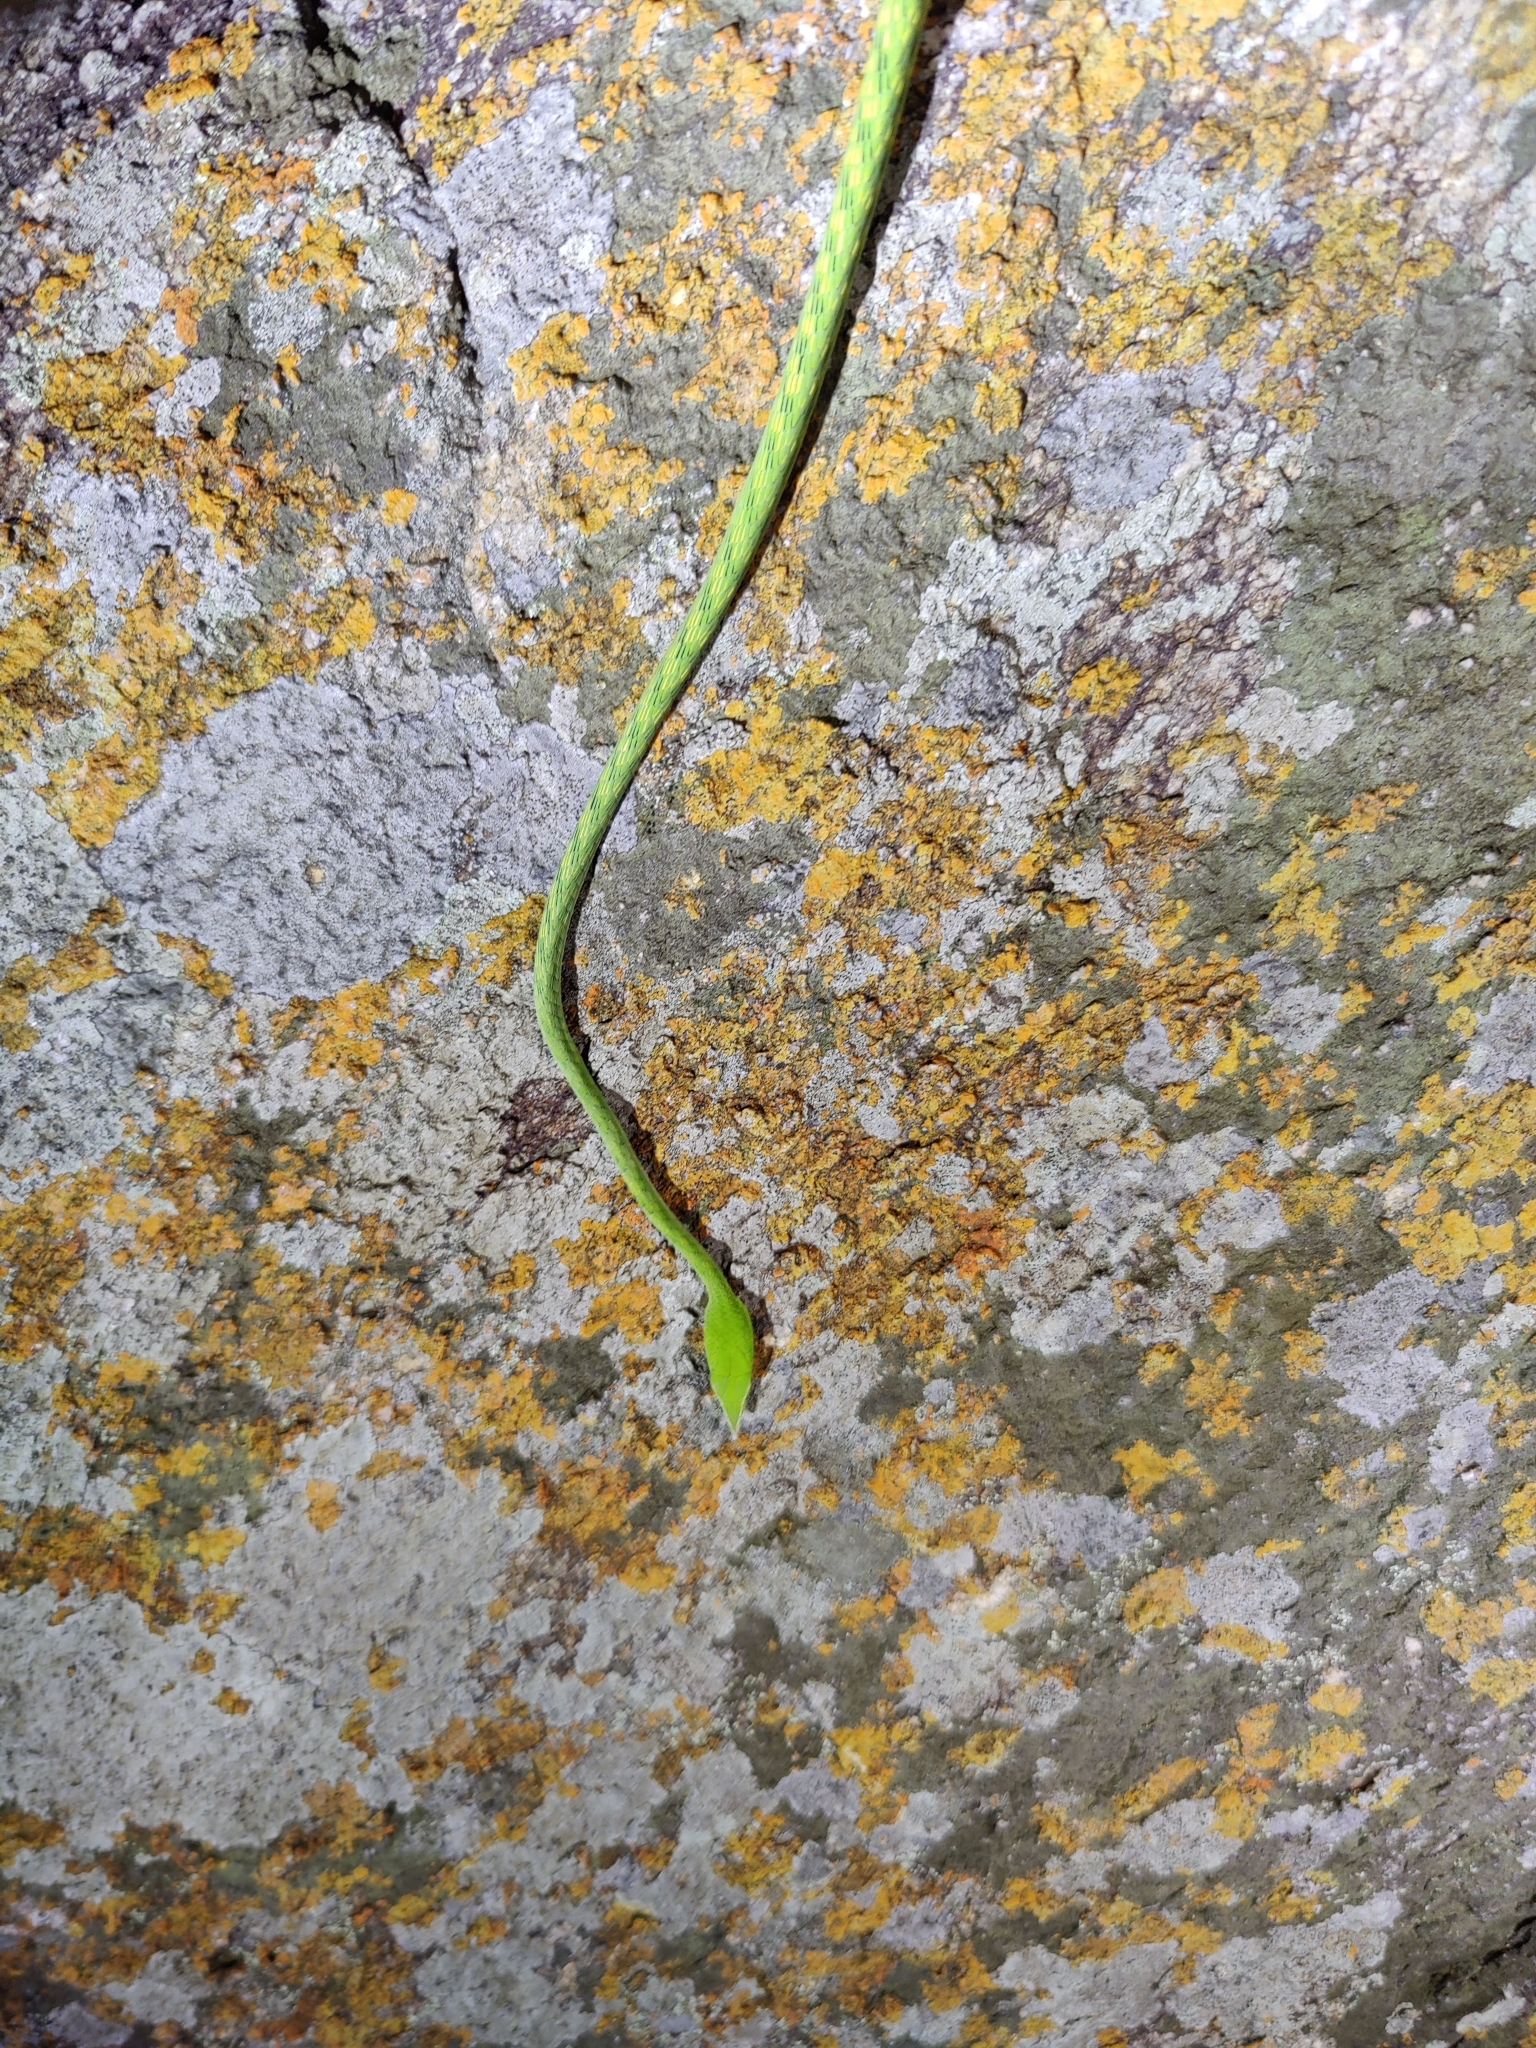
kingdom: Animalia
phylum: Chordata
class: Squamata
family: Colubridae
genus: Ahaetulla
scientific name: Ahaetulla oxyrhyncha
